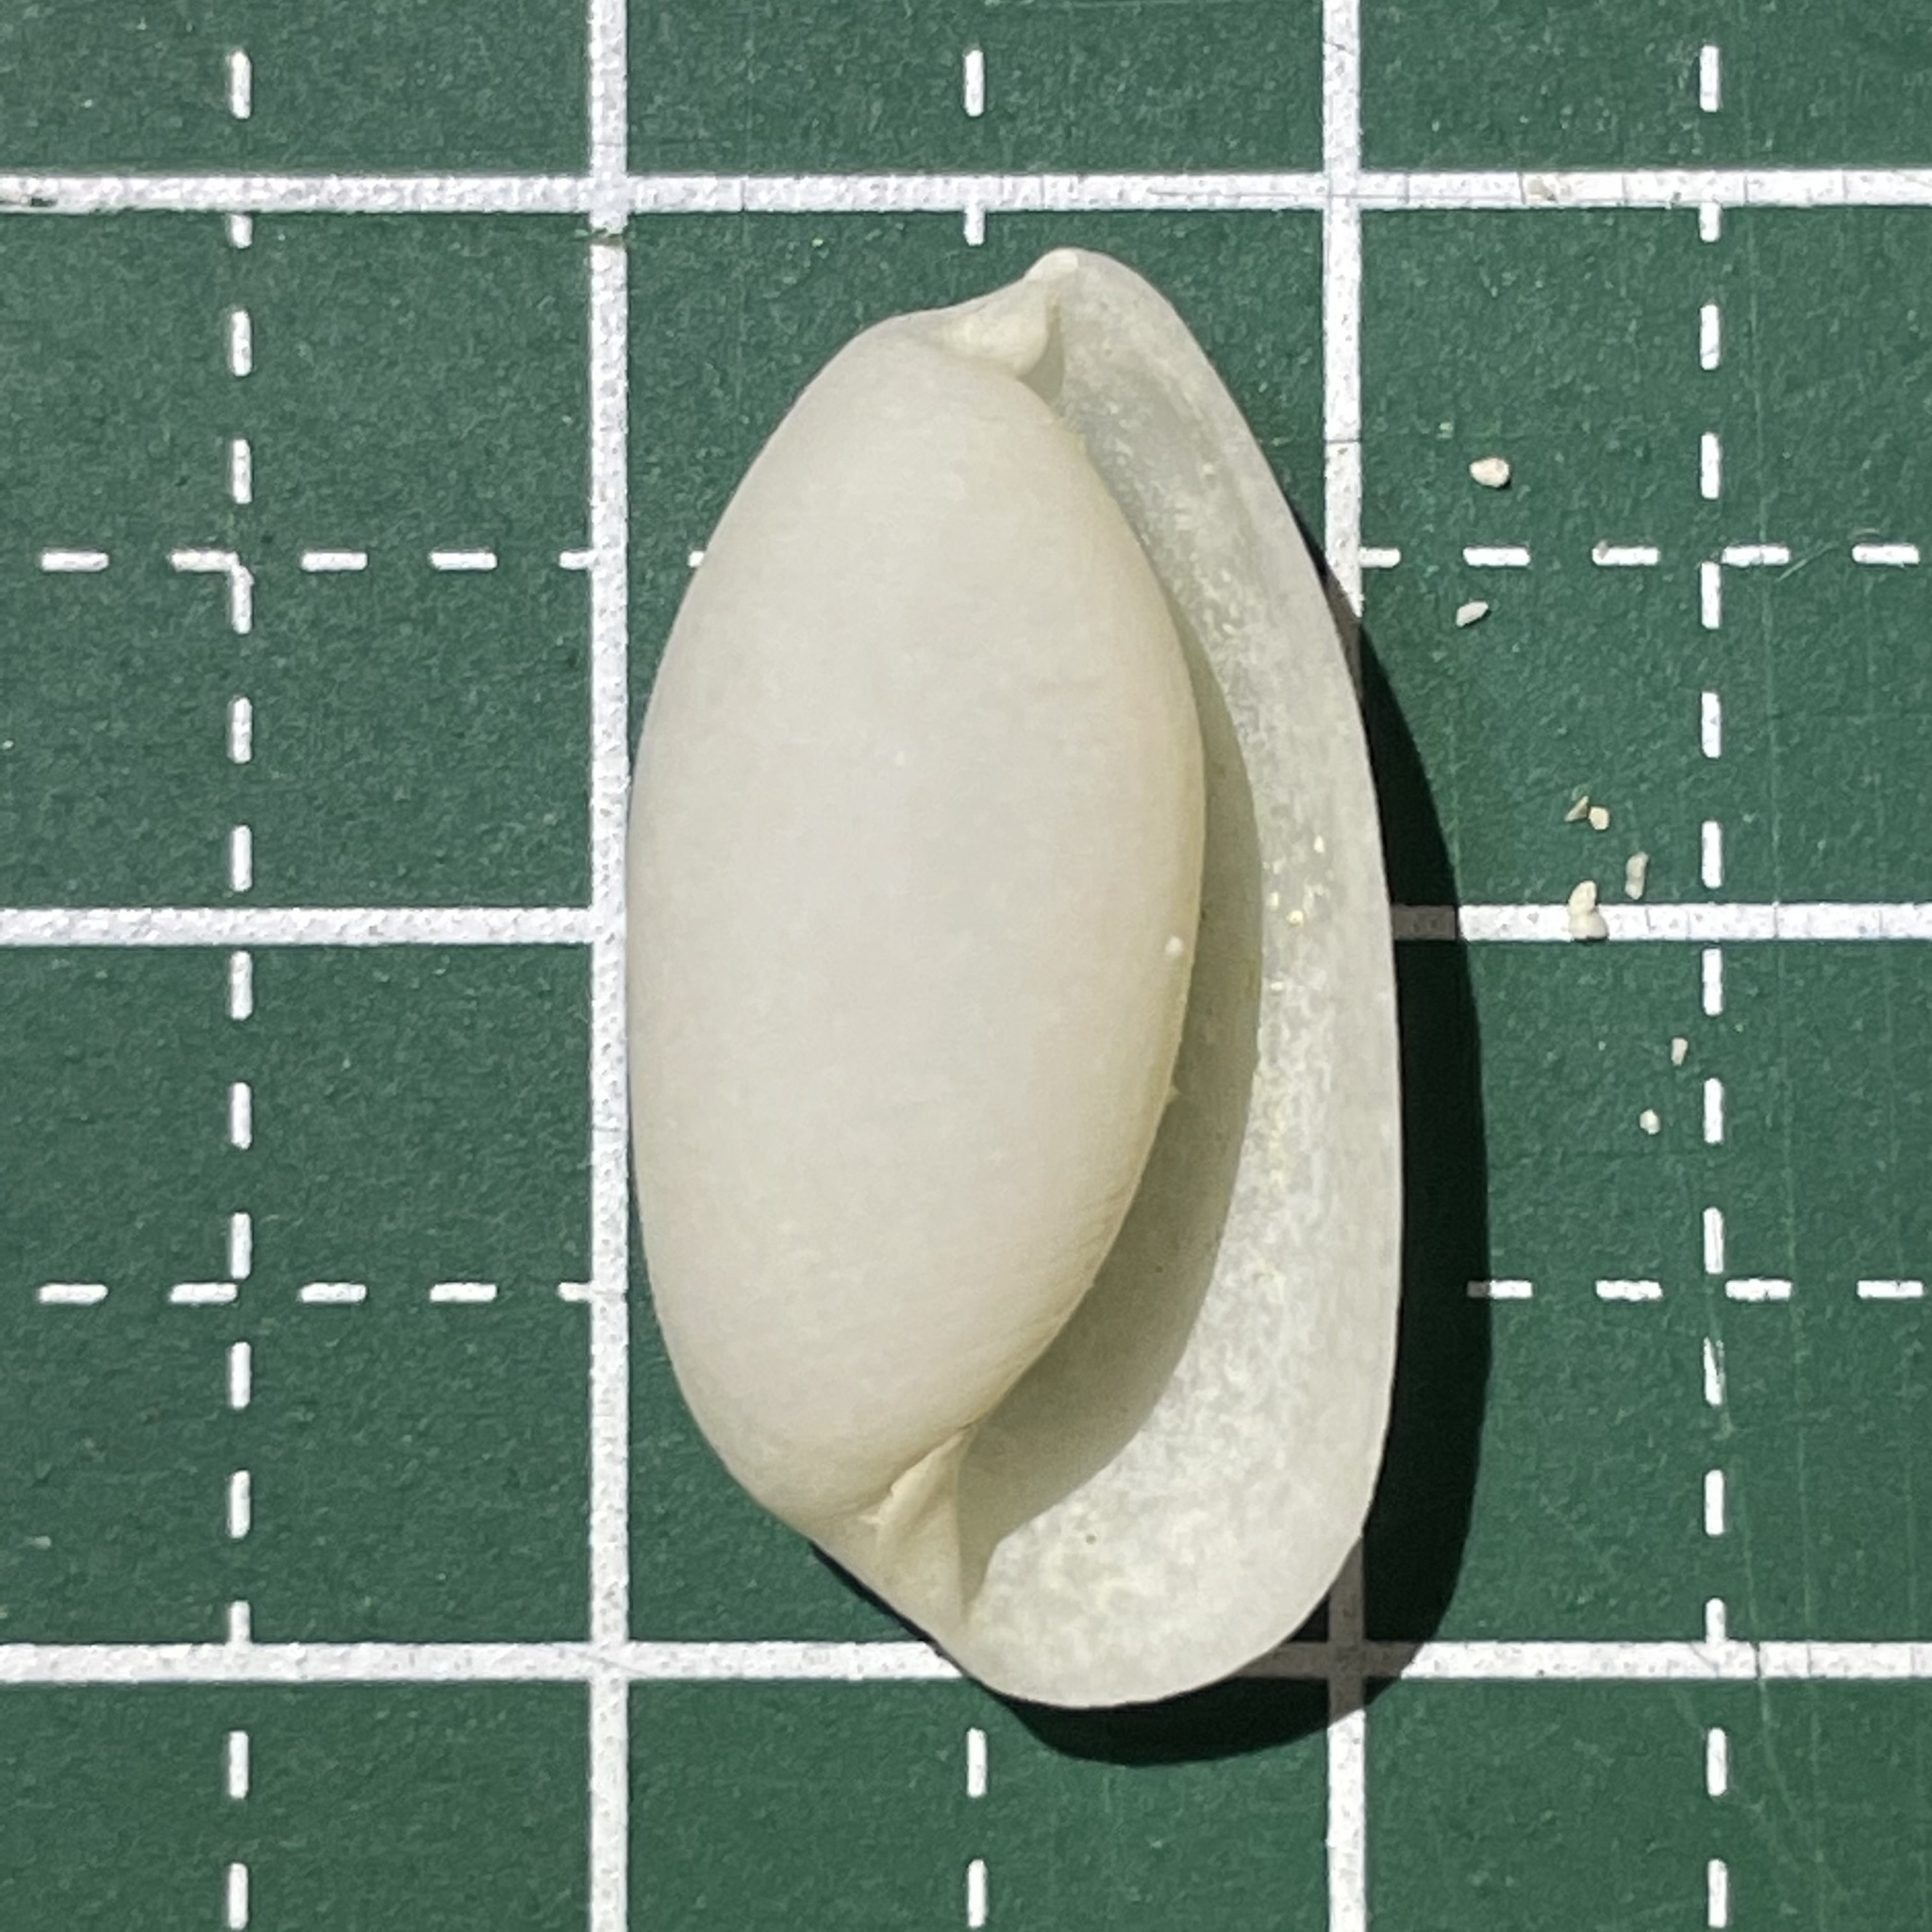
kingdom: Animalia
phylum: Mollusca
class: Gastropoda
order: Cephalaspidea
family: Haminoeidae
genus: Aliculastrum
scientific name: Aliculastrum cylindricum
